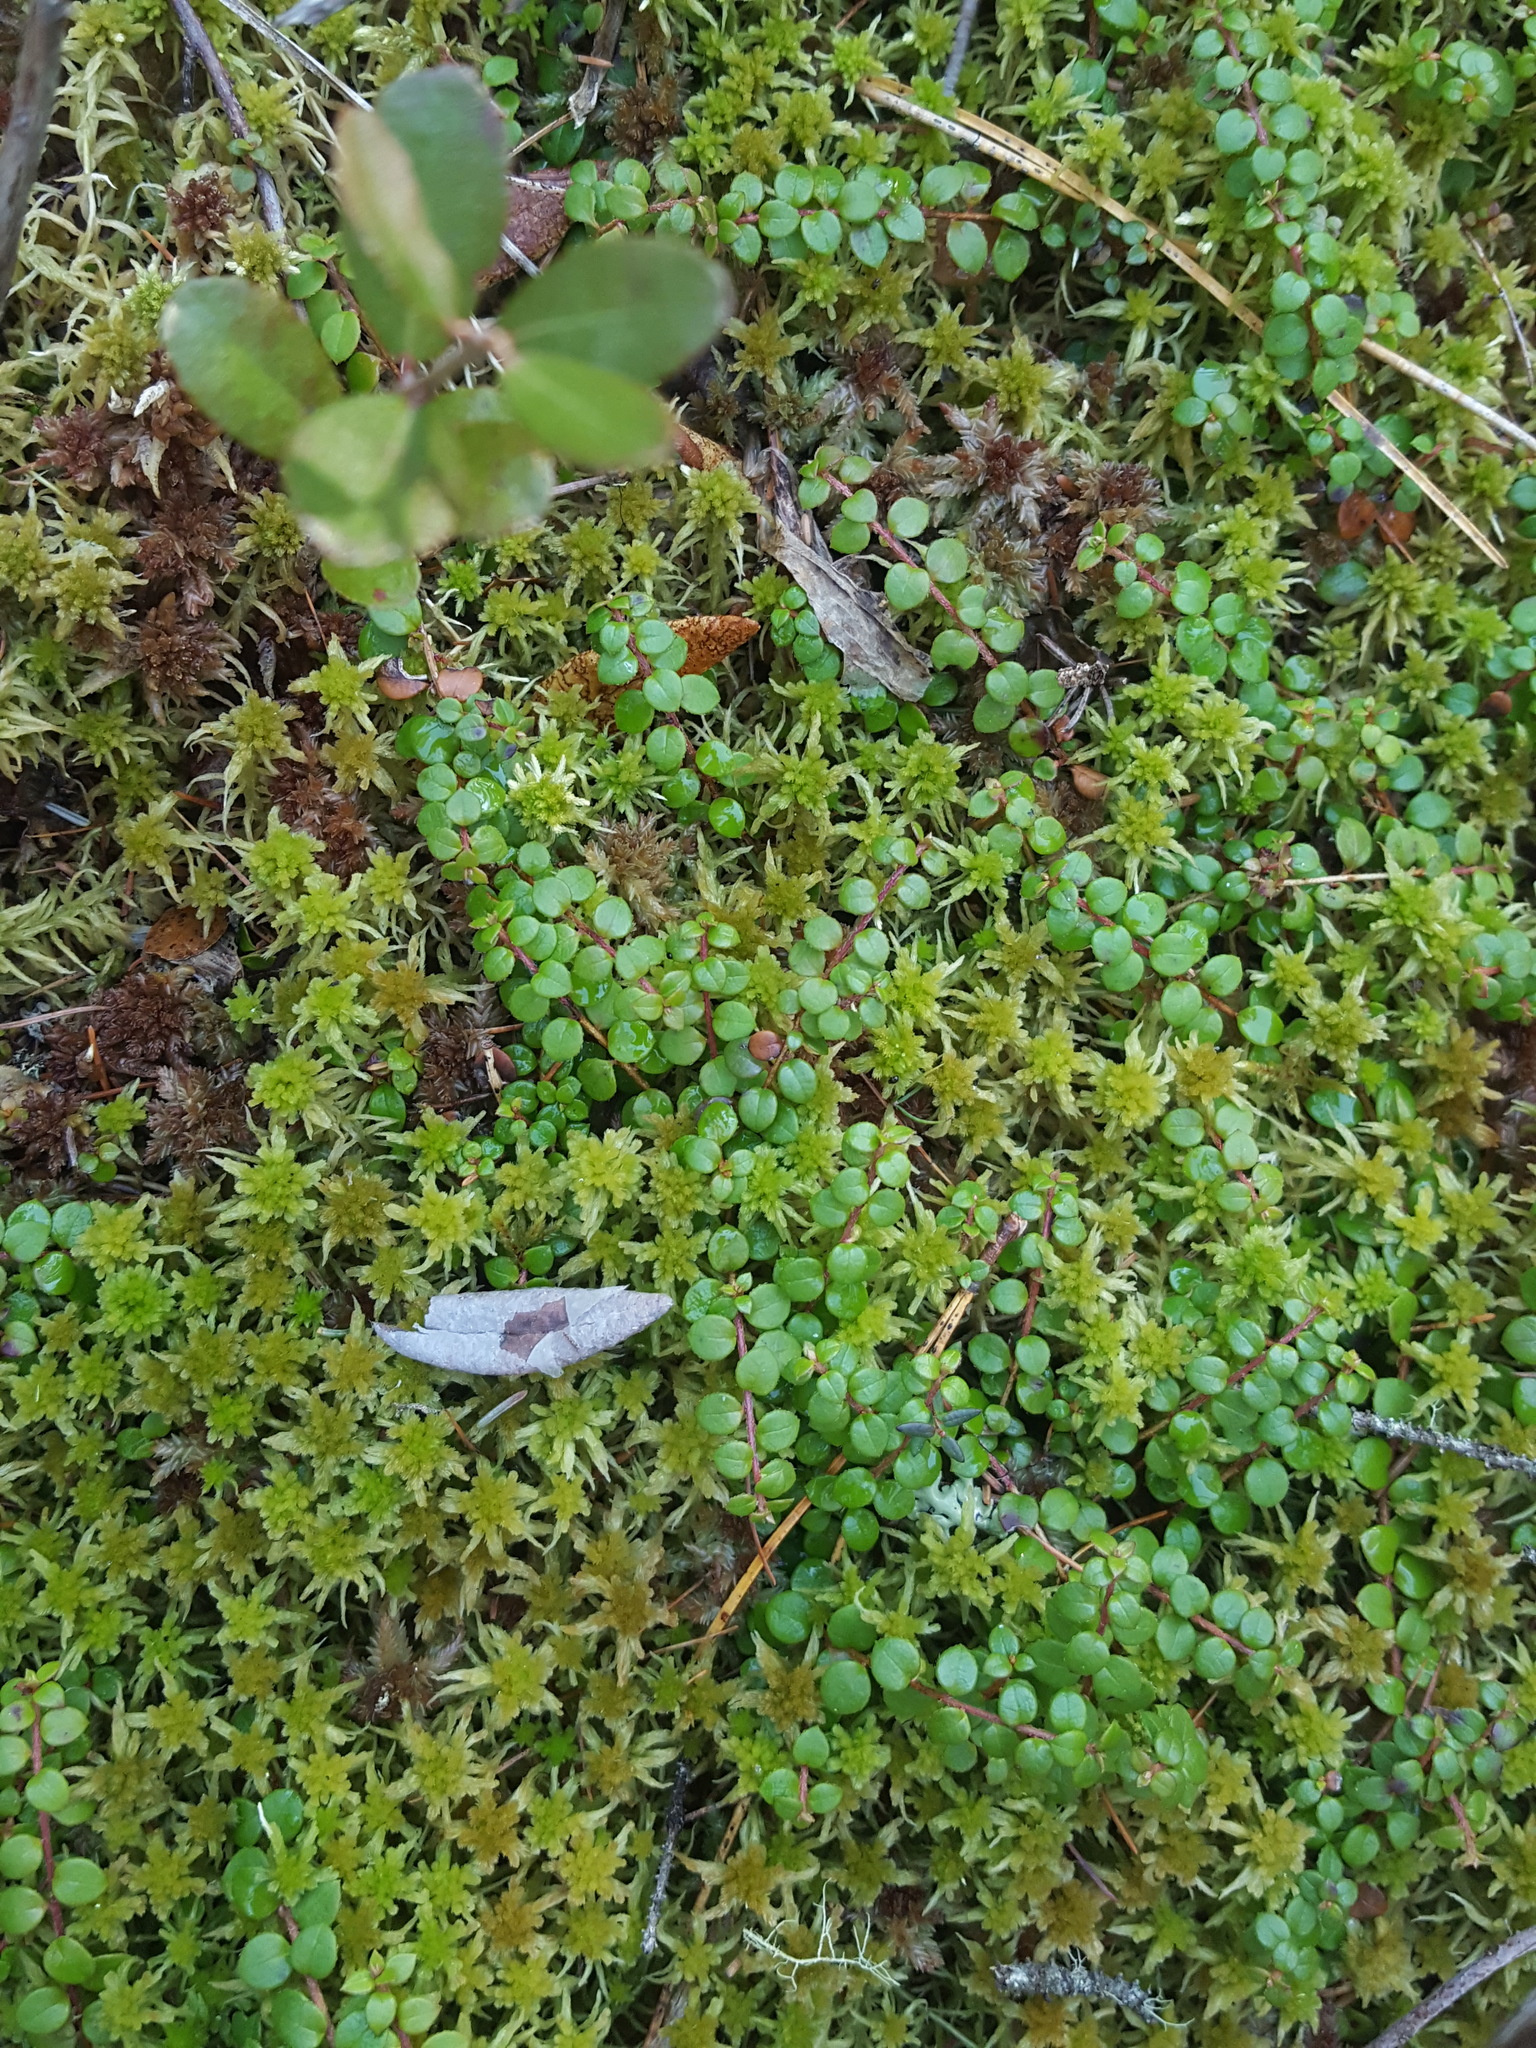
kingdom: Plantae
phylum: Tracheophyta
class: Magnoliopsida
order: Ericales
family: Ericaceae
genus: Gaultheria
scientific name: Gaultheria hispidula
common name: Cancer wintergreen
